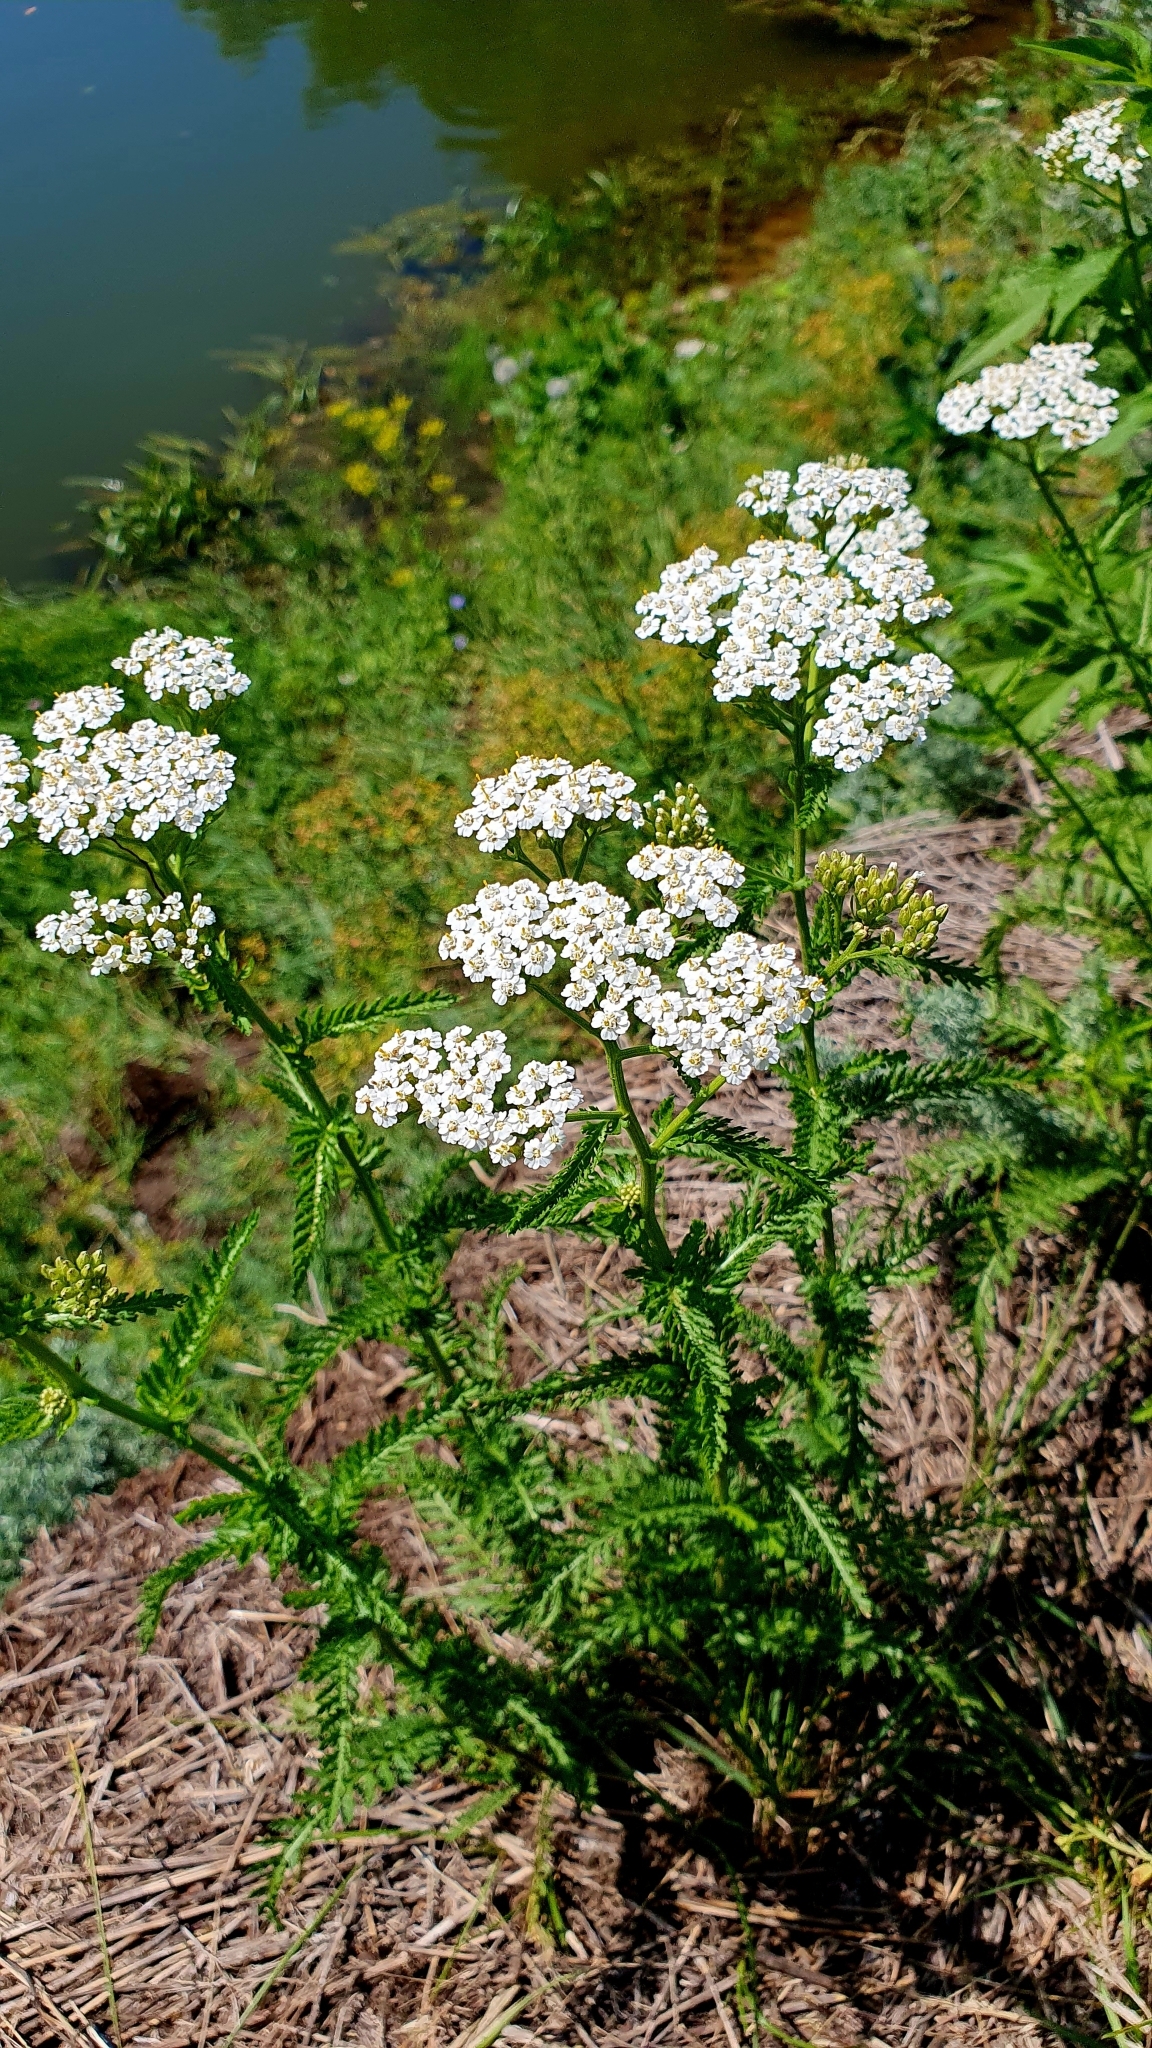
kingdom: Plantae
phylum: Tracheophyta
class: Magnoliopsida
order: Asterales
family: Asteraceae
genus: Achillea
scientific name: Achillea millefolium
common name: Yarrow
